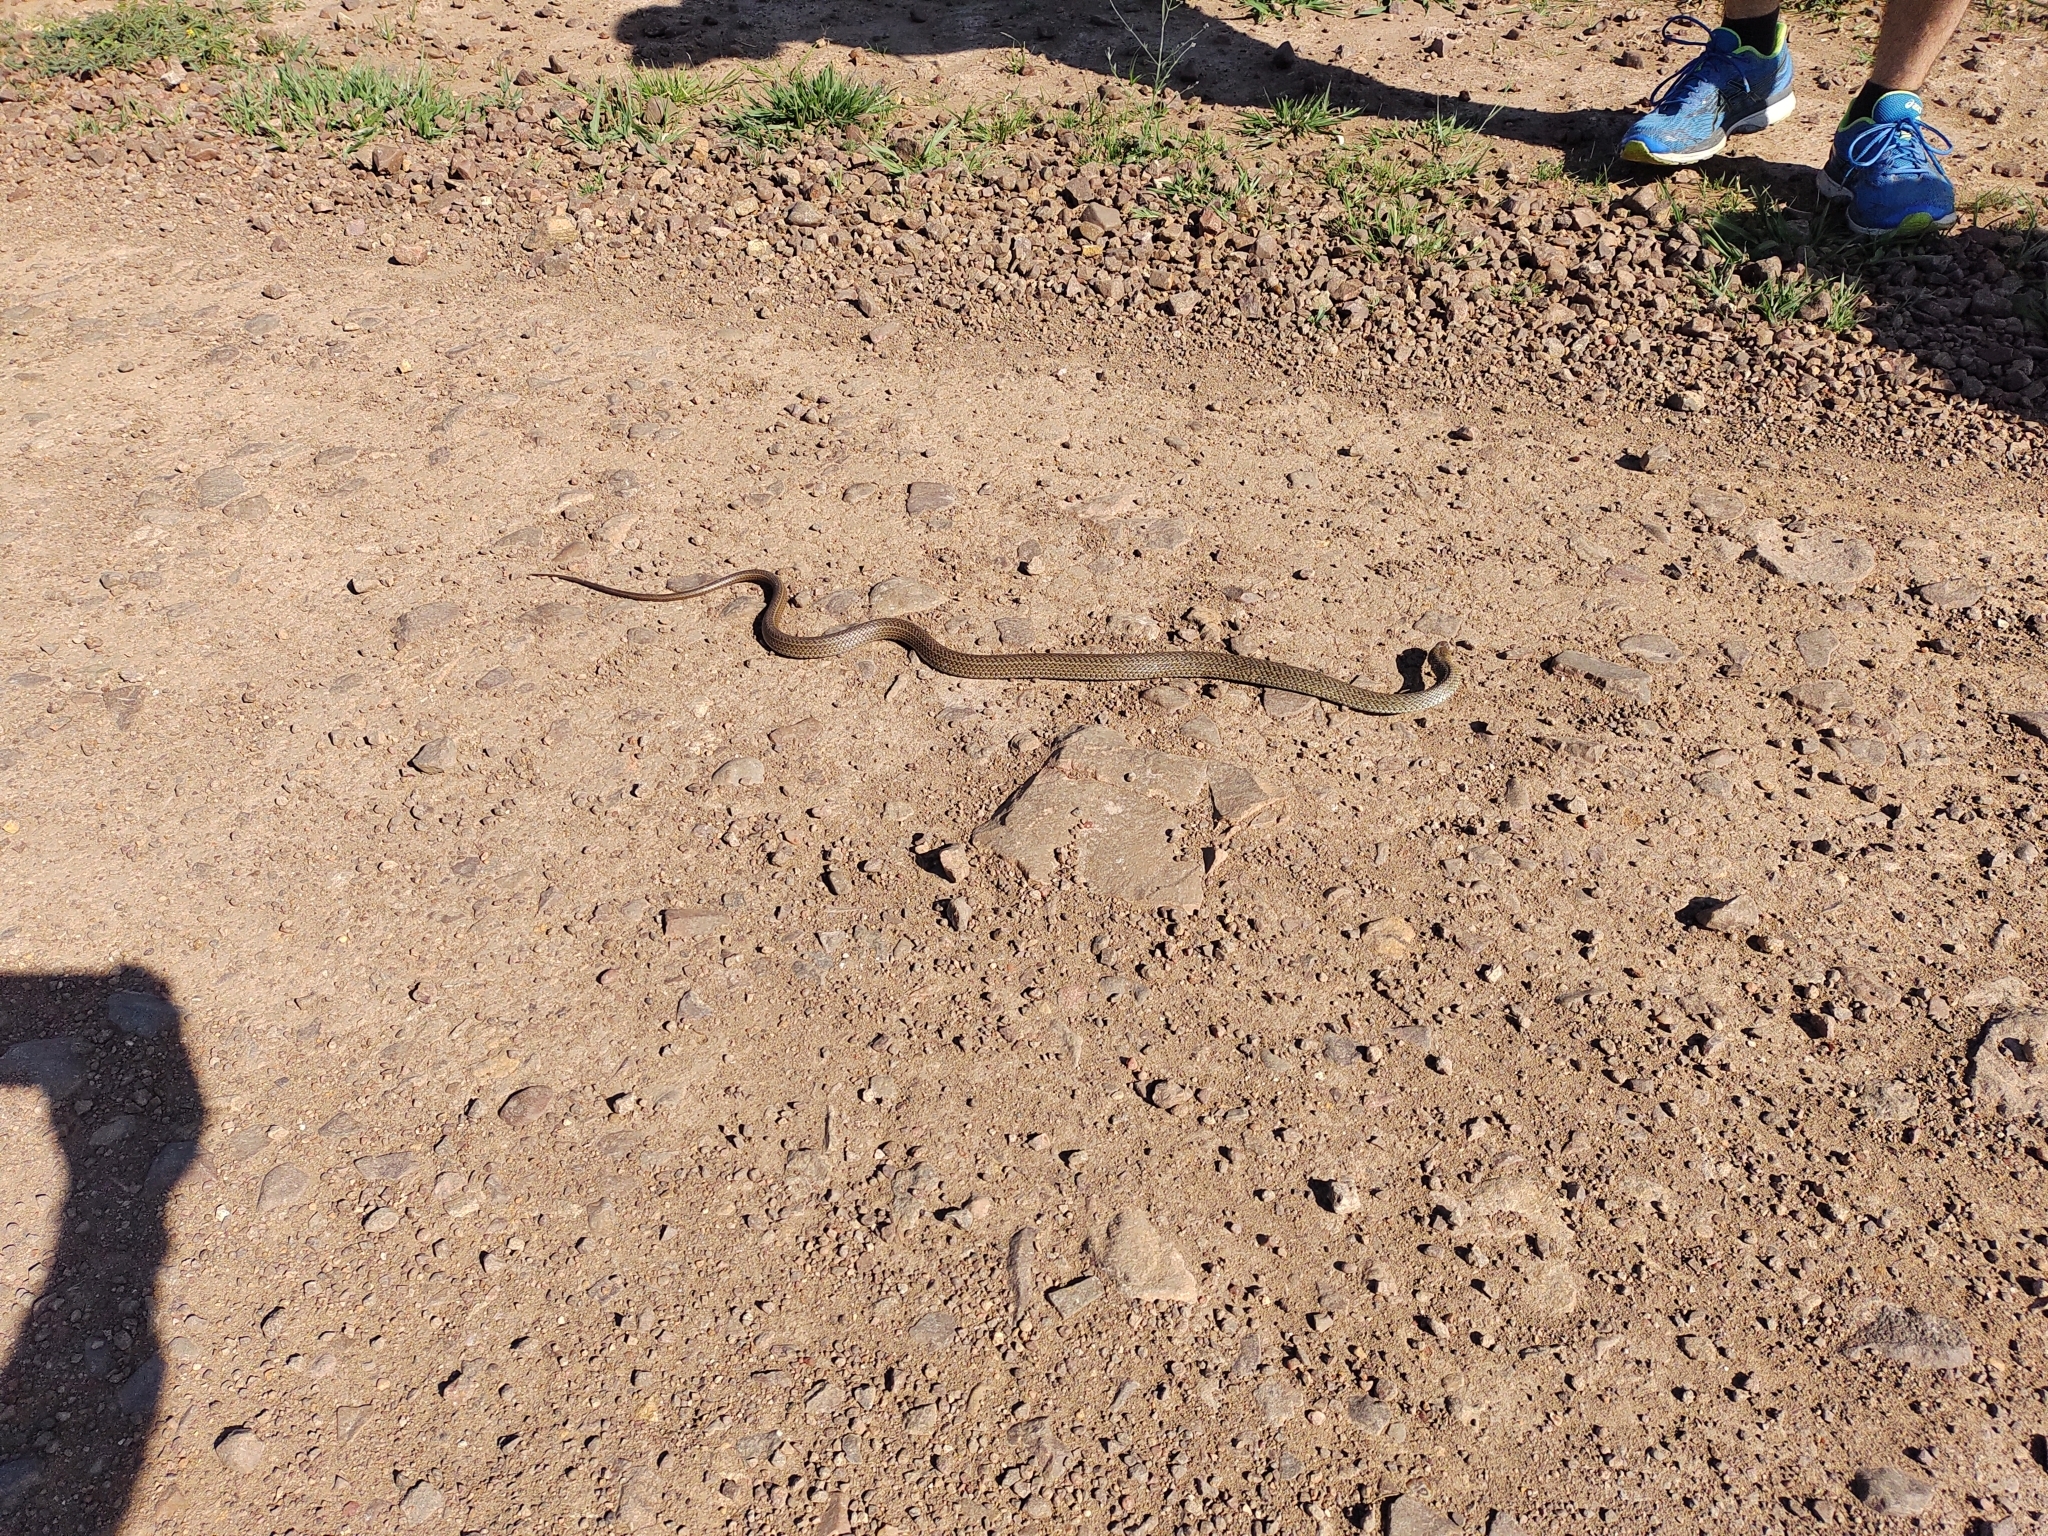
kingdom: Animalia
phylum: Chordata
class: Squamata
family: Colubridae
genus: Philodryas
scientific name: Philodryas patagoniensis
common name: Patagonia green racer
